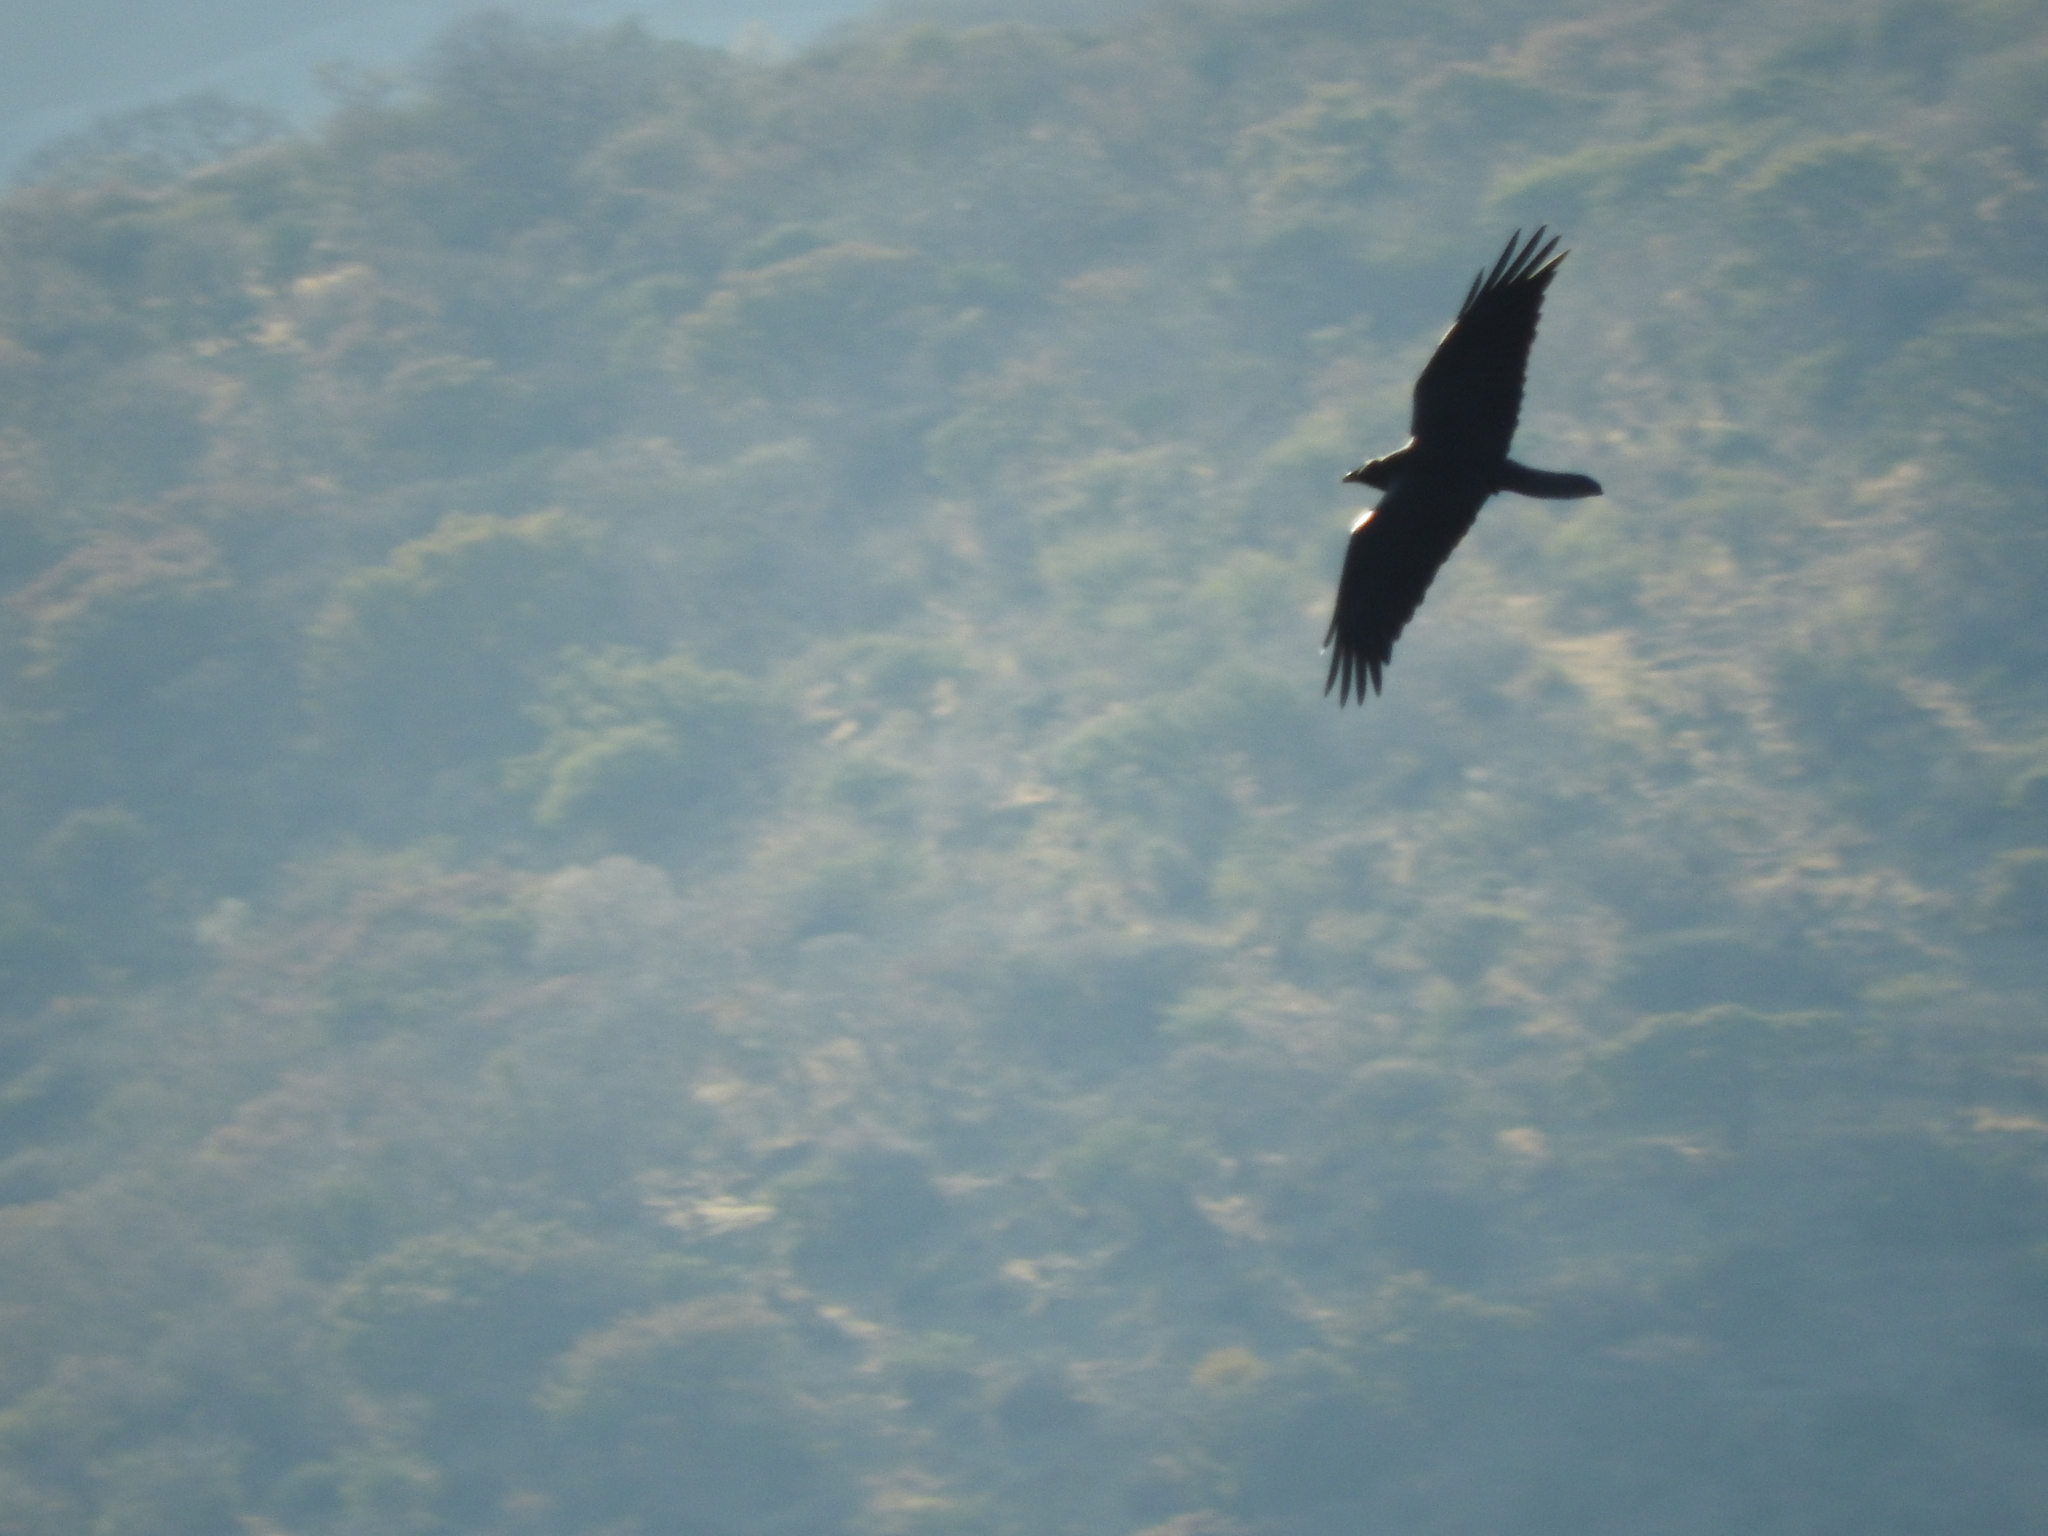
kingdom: Animalia
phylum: Chordata
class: Aves
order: Passeriformes
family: Corvidae
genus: Corvus
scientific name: Corvus corax
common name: Common raven
